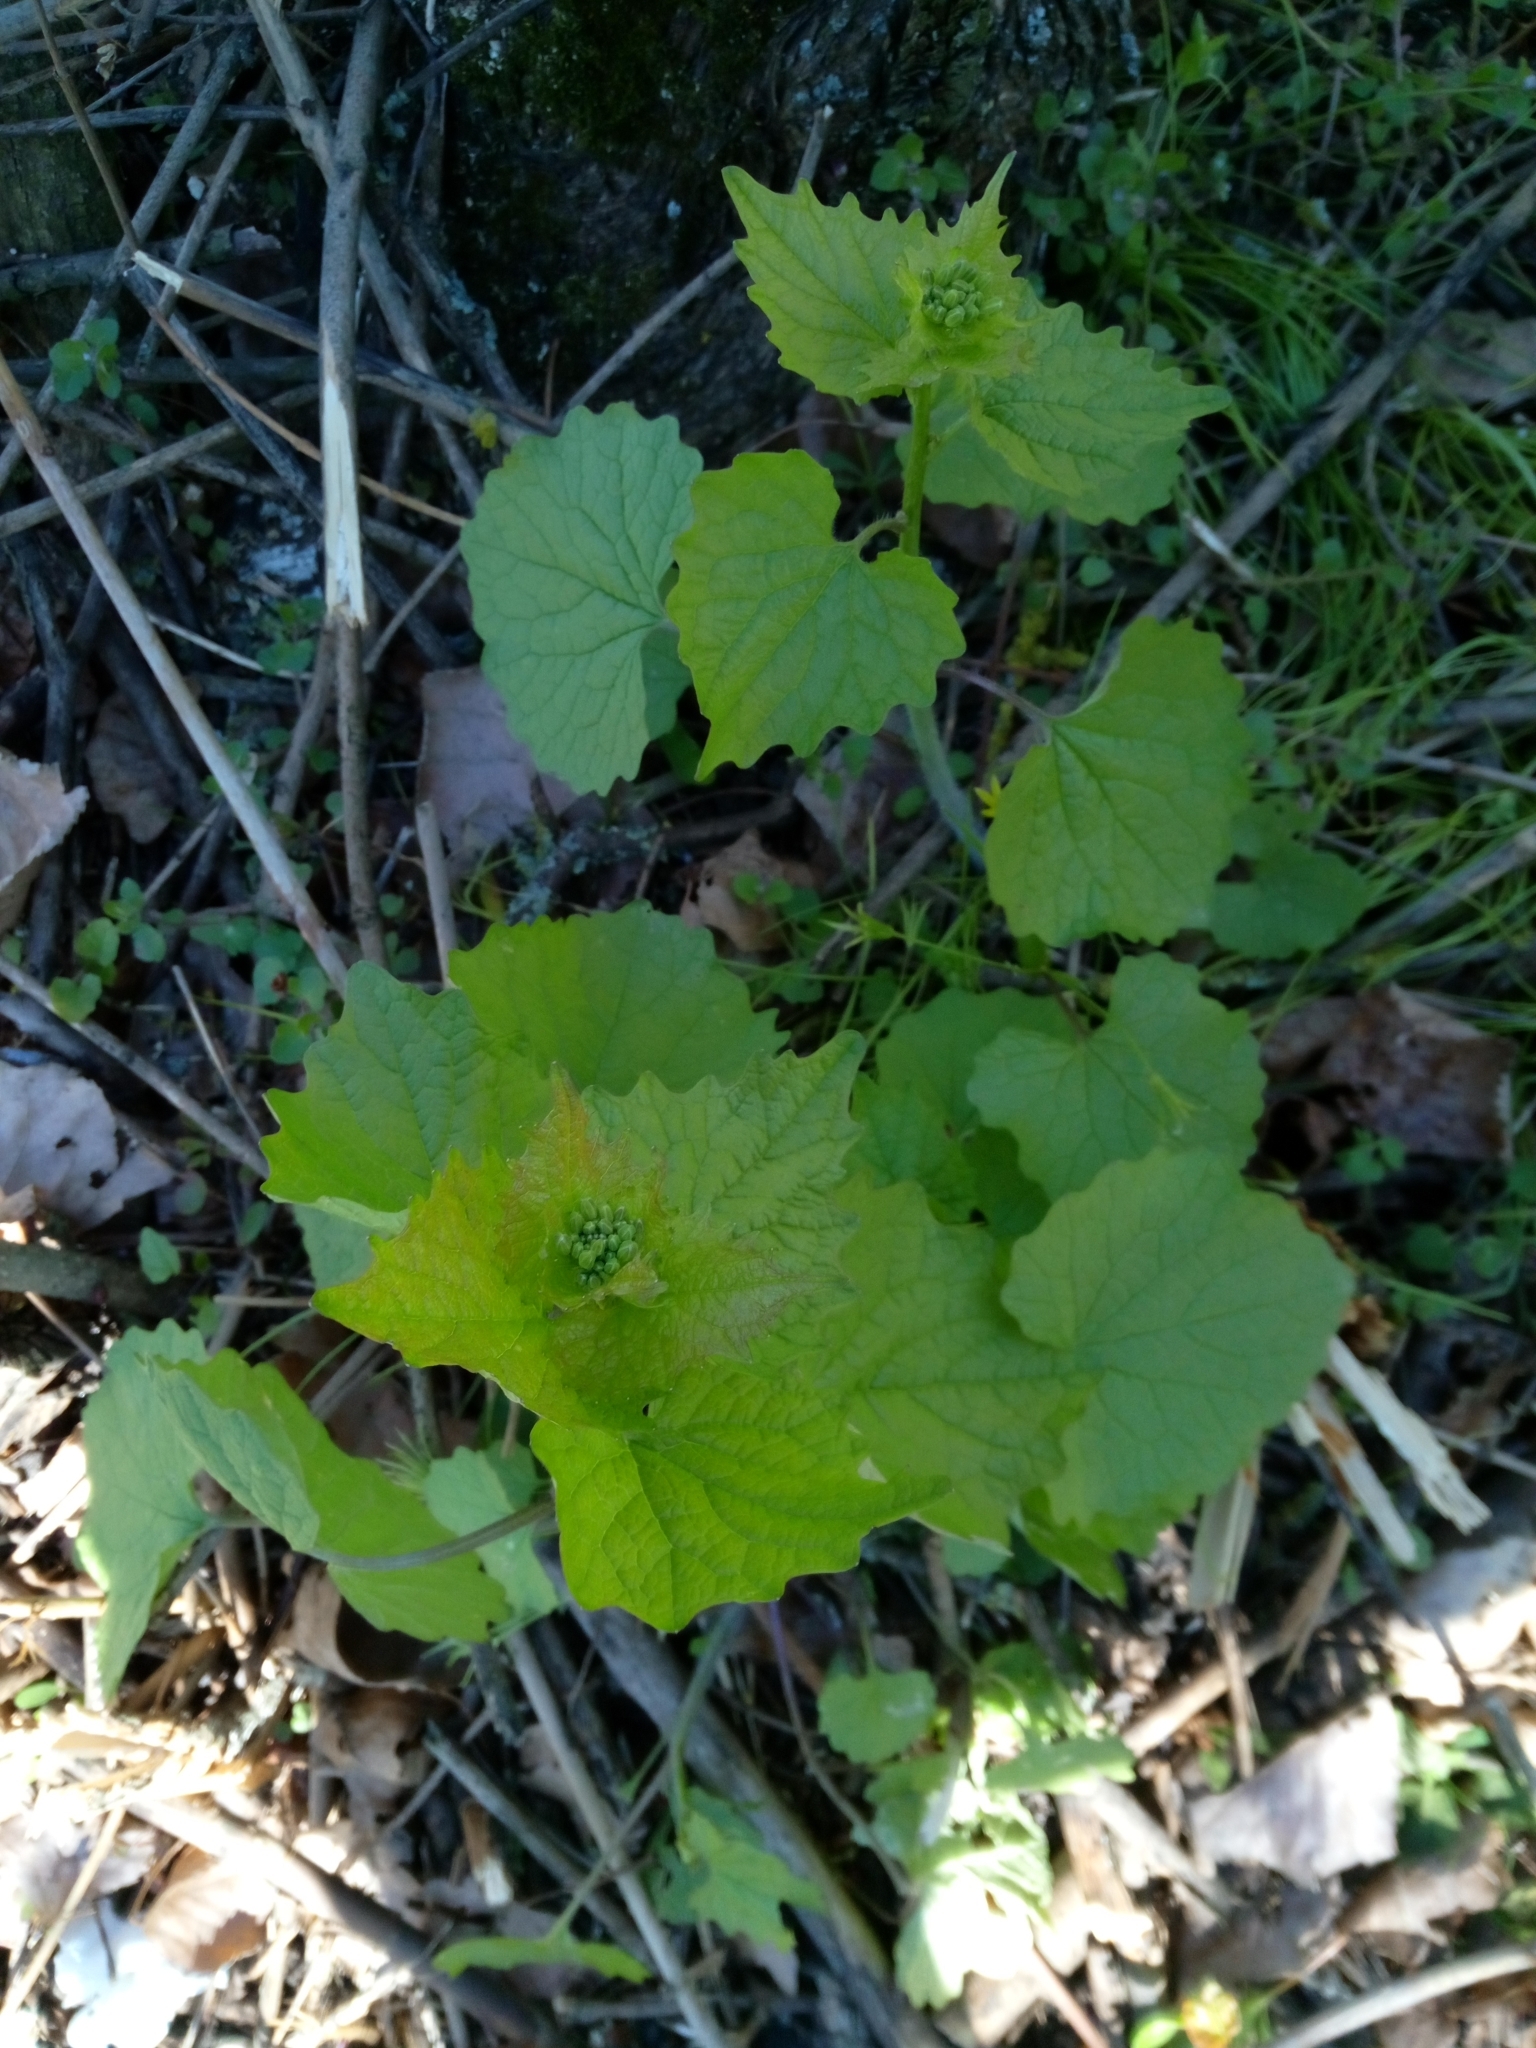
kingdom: Plantae
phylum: Tracheophyta
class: Magnoliopsida
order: Brassicales
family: Brassicaceae
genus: Alliaria
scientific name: Alliaria petiolata
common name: Garlic mustard
